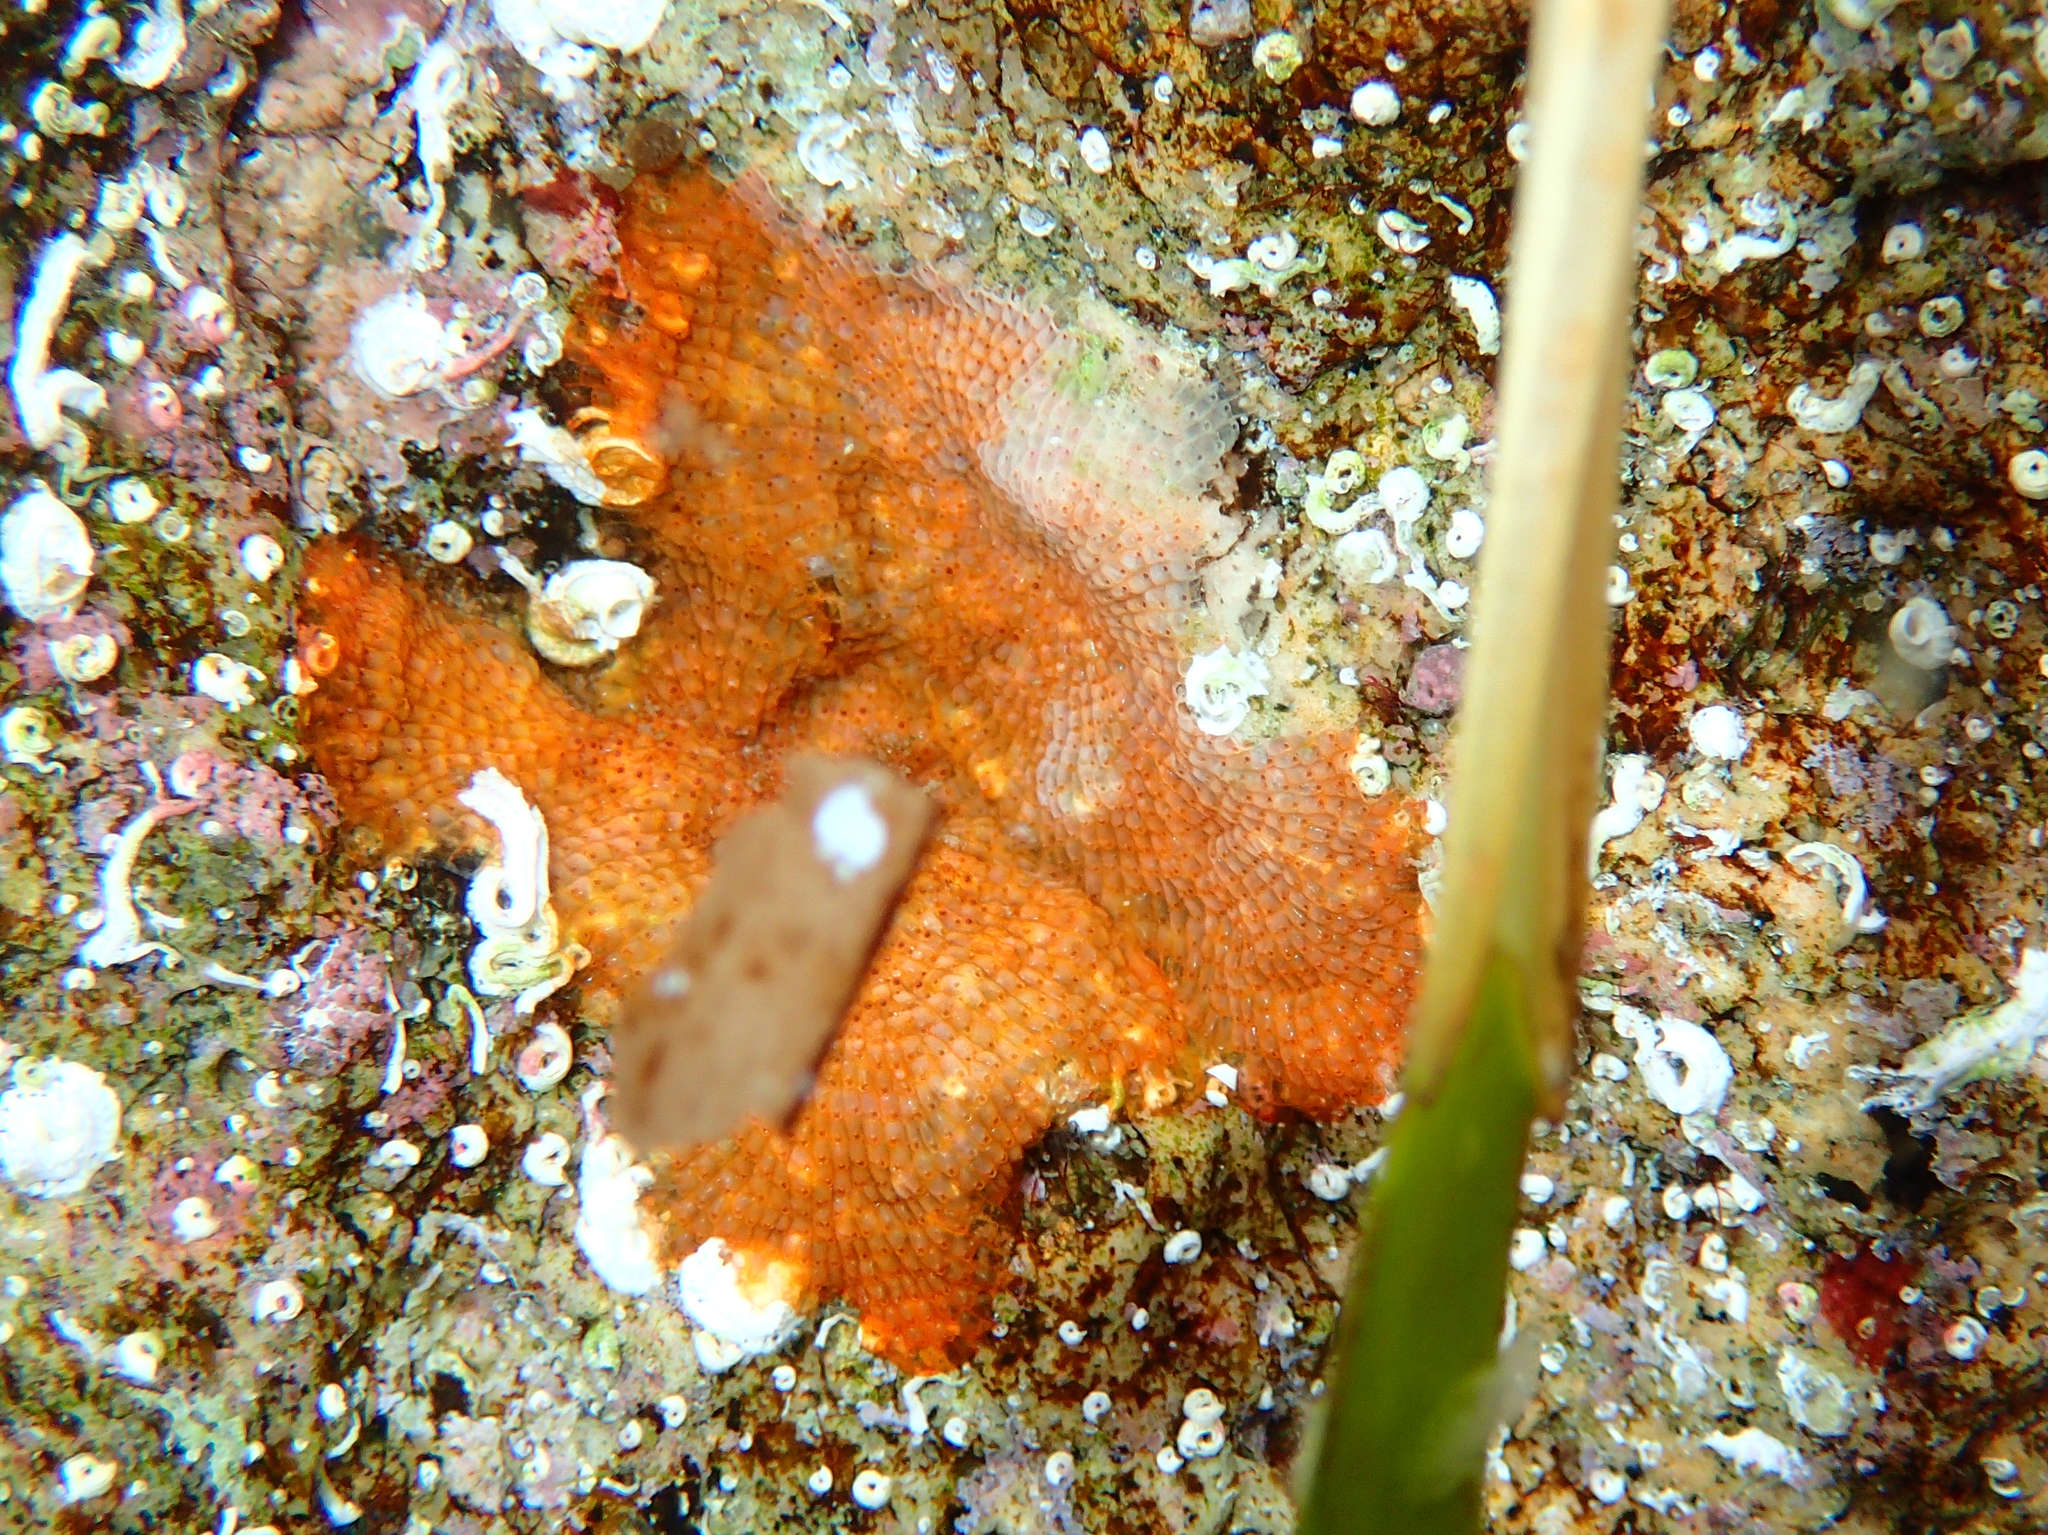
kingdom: Animalia
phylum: Bryozoa
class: Gymnolaemata
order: Cheilostomatida
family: Schizoporellidae
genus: Schizoporella
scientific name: Schizoporella dunkeri
